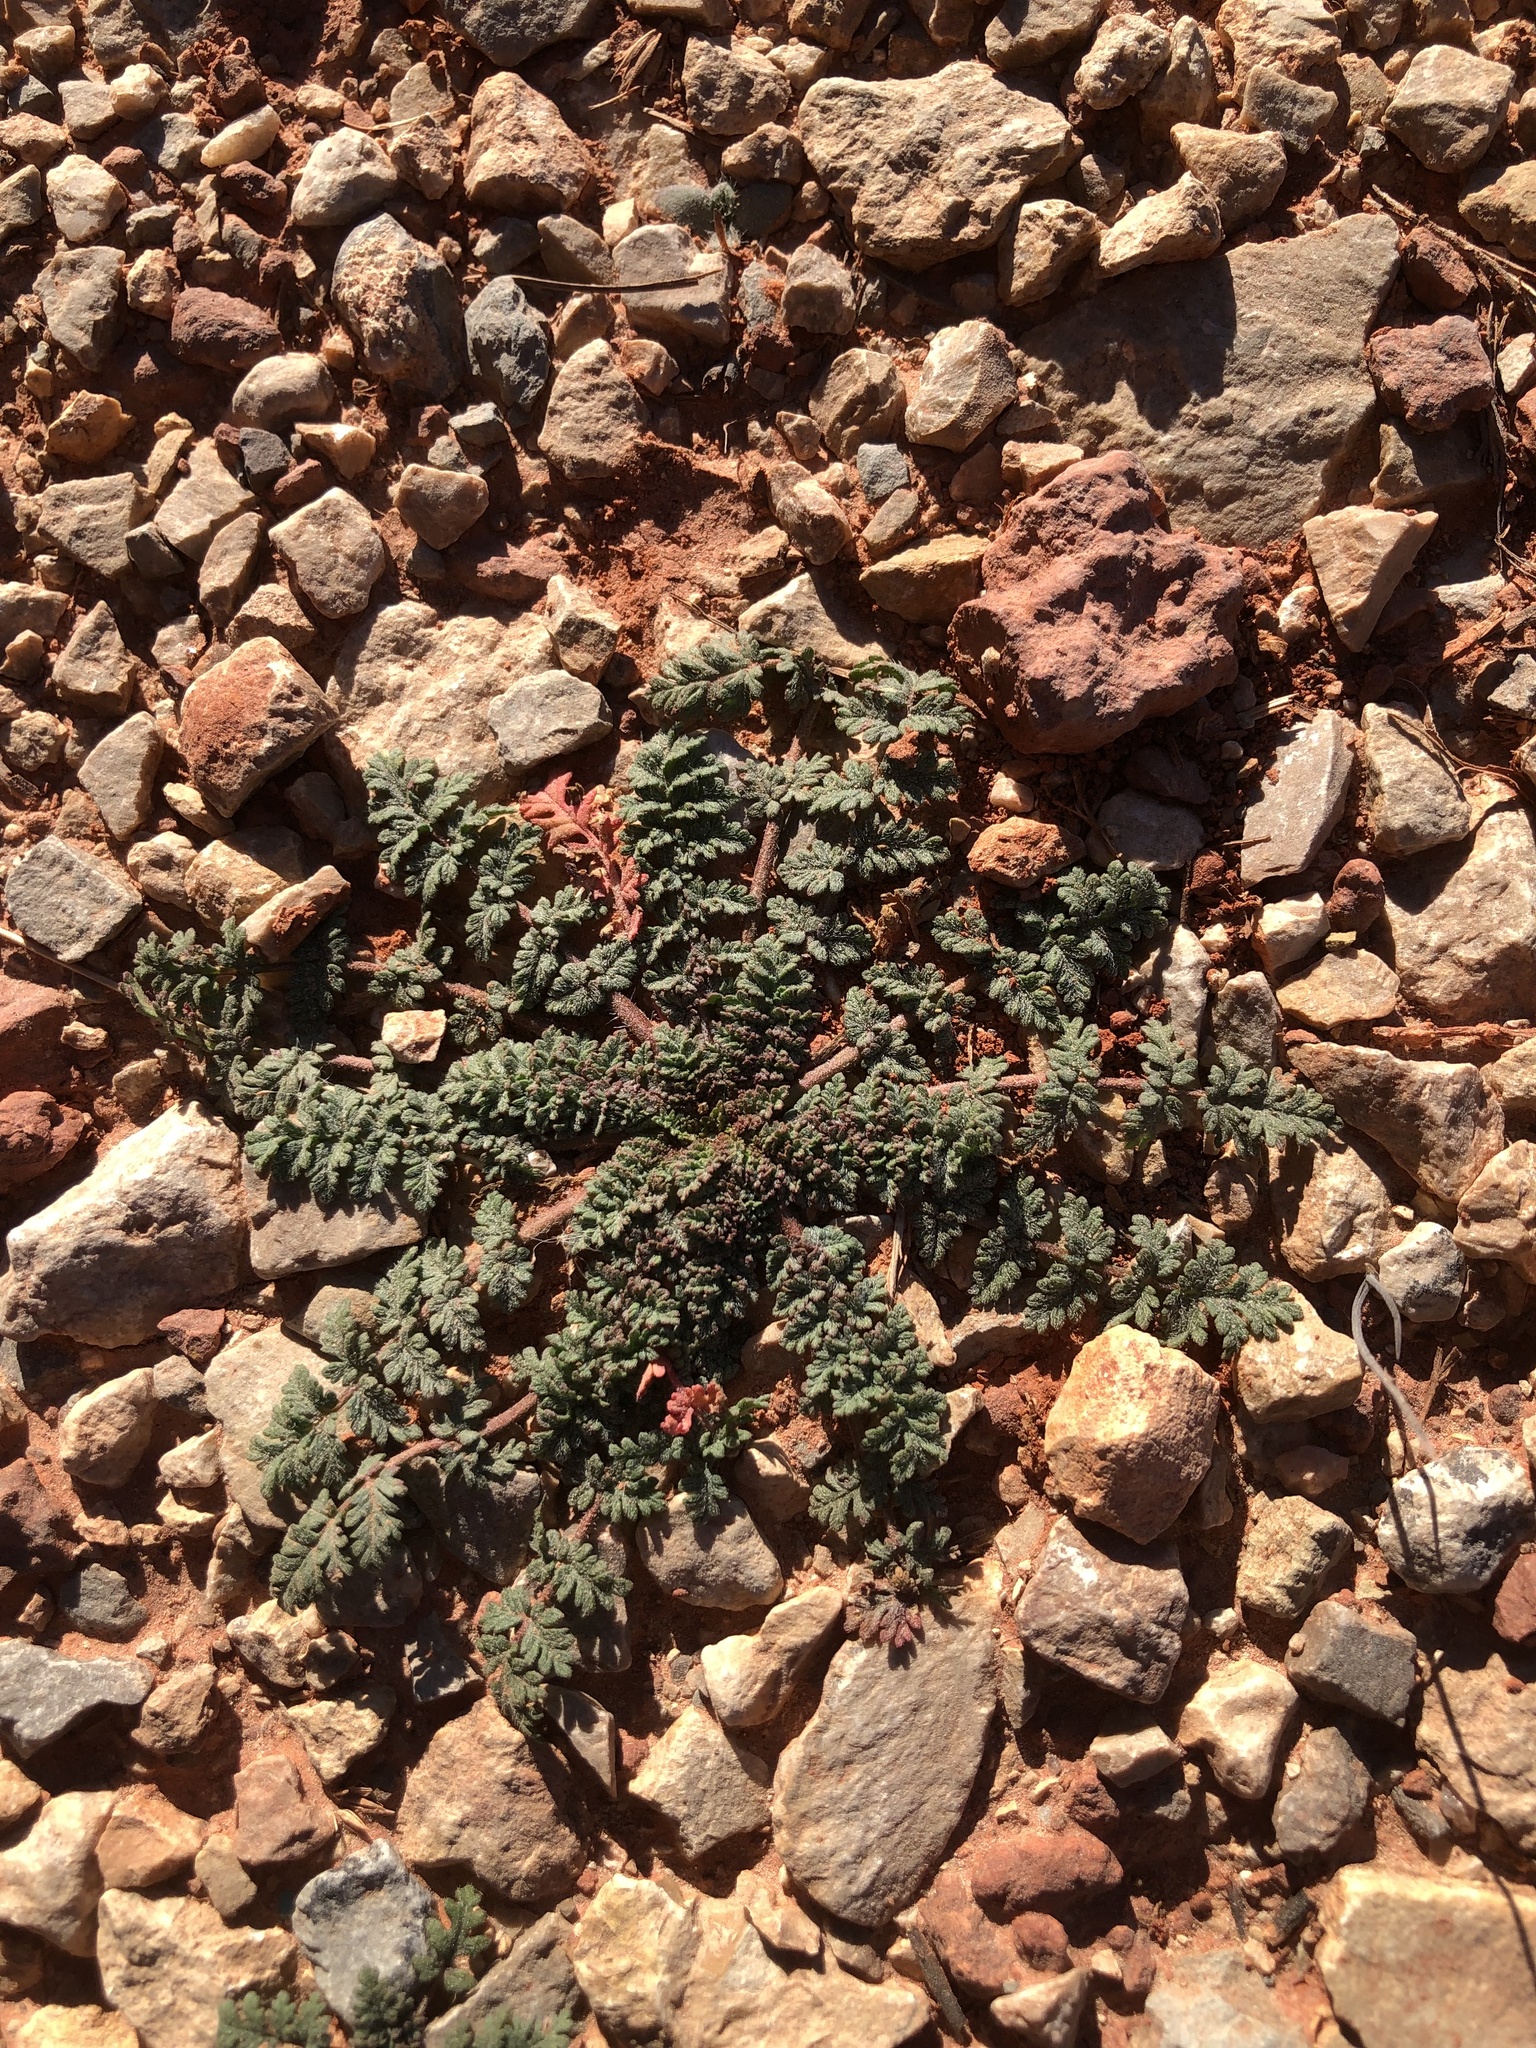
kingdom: Plantae
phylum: Tracheophyta
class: Magnoliopsida
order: Geraniales
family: Geraniaceae
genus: Erodium
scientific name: Erodium cicutarium
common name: Common stork's-bill
